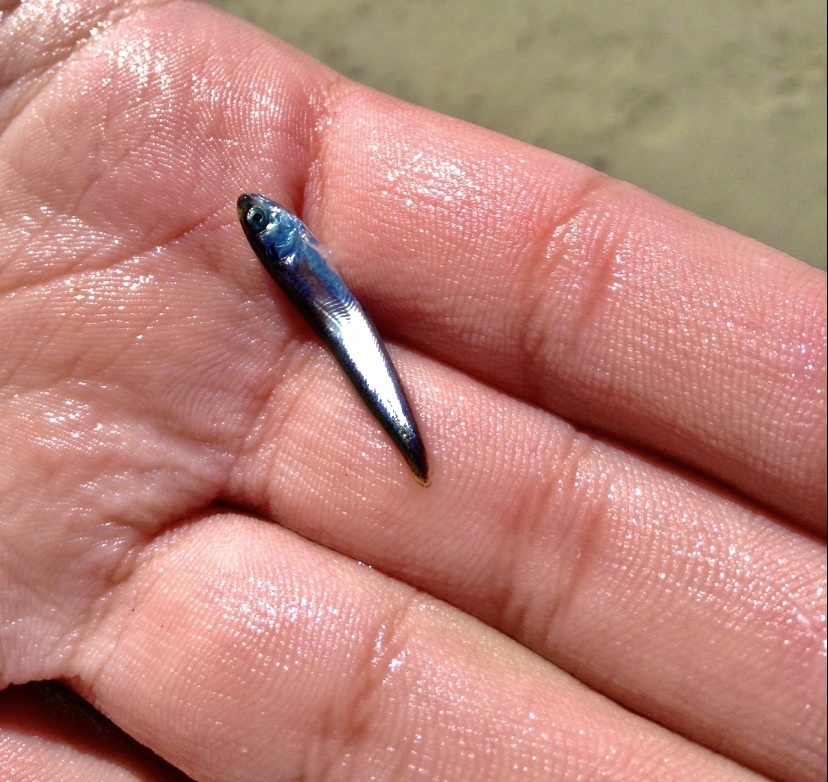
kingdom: Animalia
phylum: Chordata
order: Gadiformes
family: Lotidae
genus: Enchelyopus
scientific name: Enchelyopus cimbrius
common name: Four-bearded rockling
